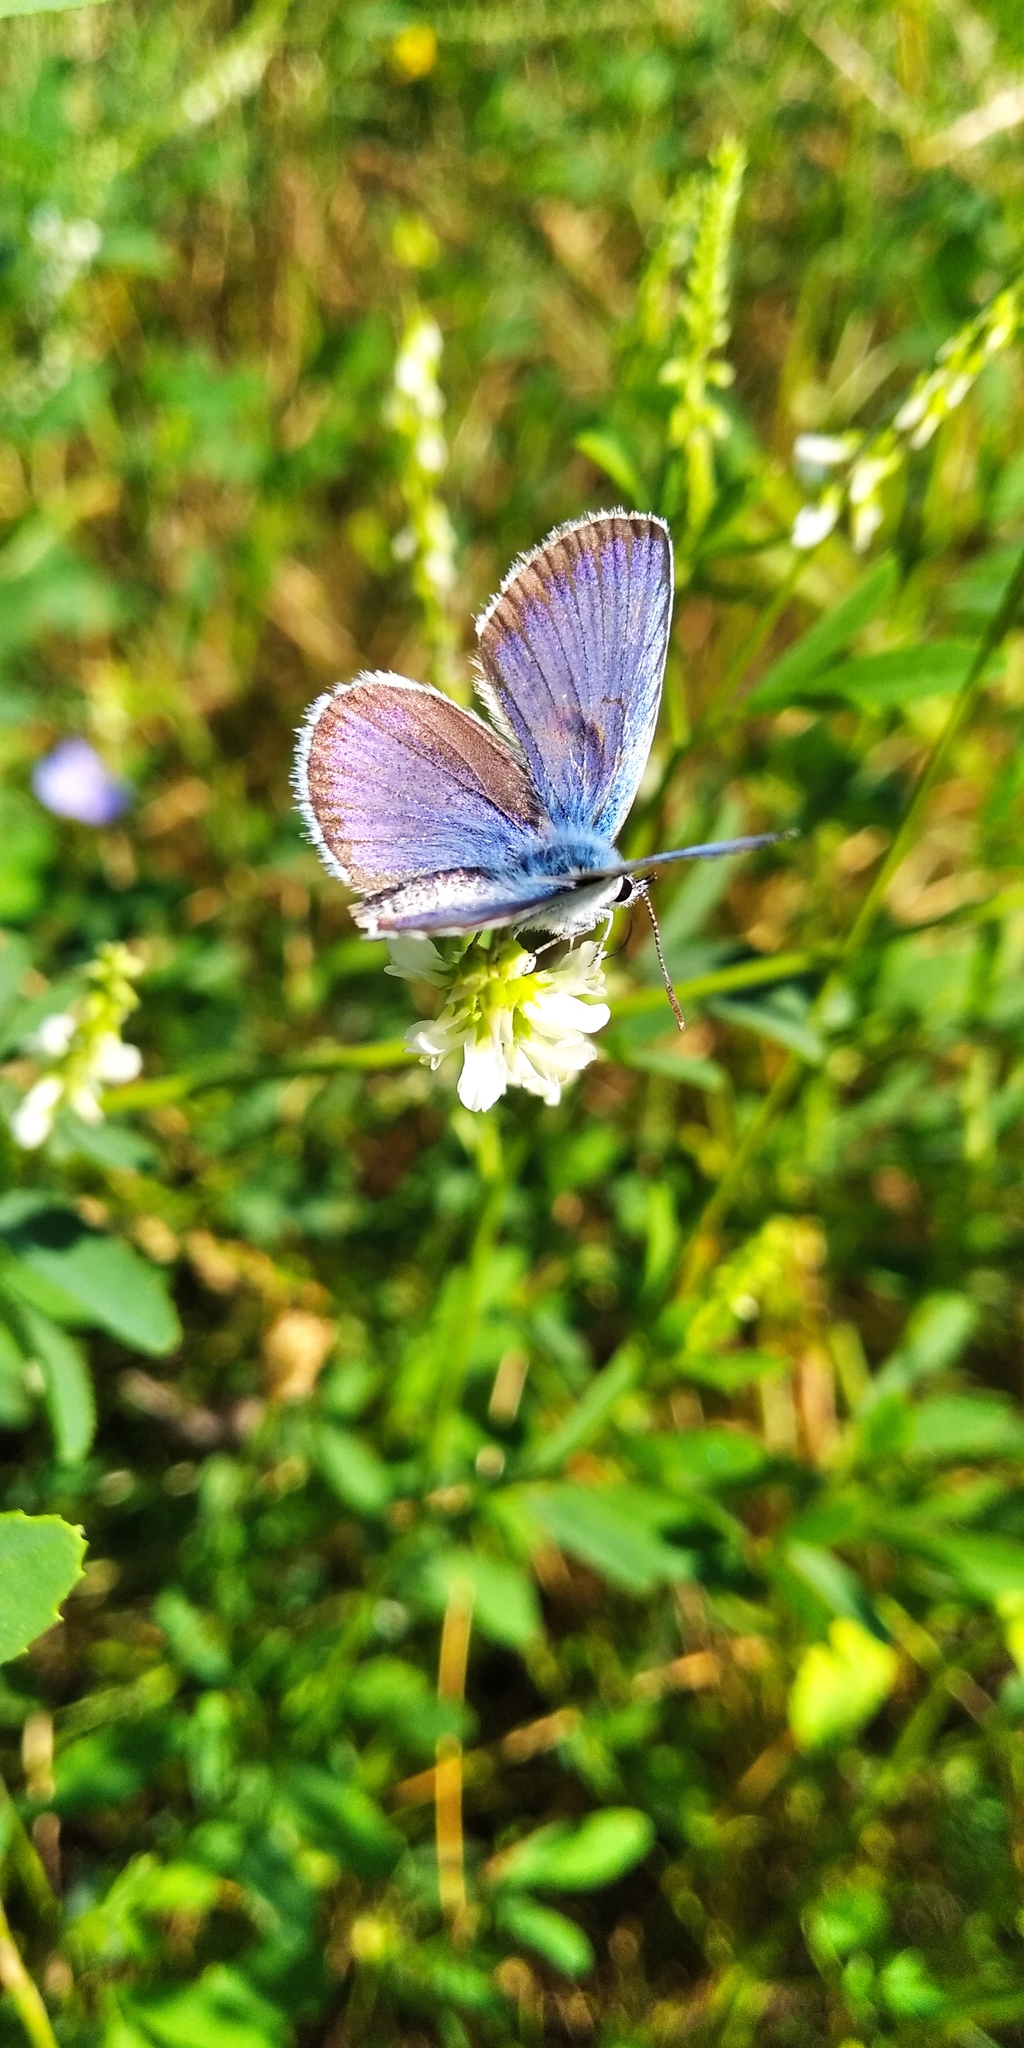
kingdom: Animalia
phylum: Arthropoda
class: Insecta
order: Lepidoptera
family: Lycaenidae
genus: Plebejus
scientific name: Plebejus argus
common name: Silver-studded blue
